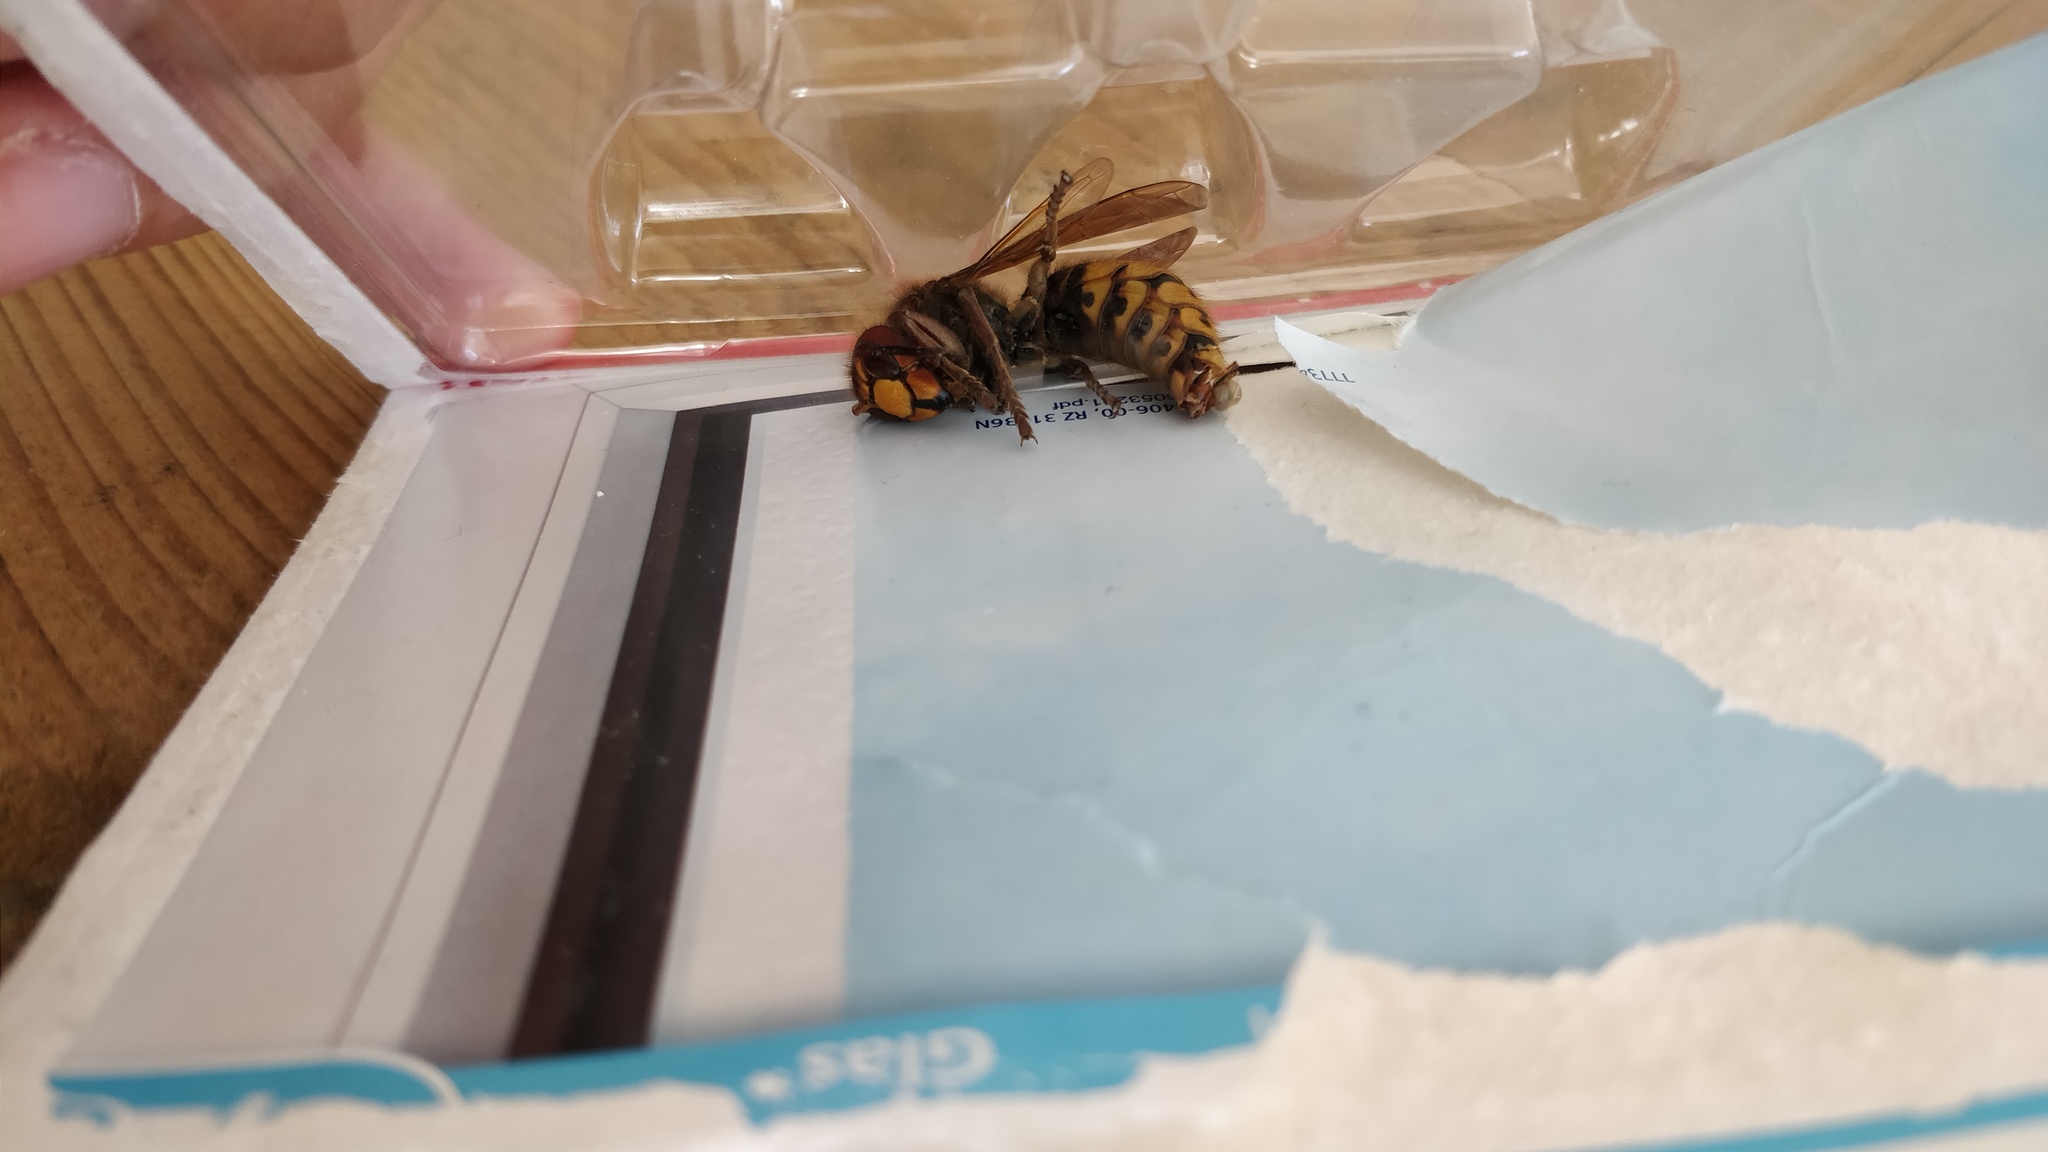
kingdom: Animalia
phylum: Arthropoda
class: Insecta
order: Hymenoptera
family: Vespidae
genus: Vespa
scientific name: Vespa crabro
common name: Hornet
